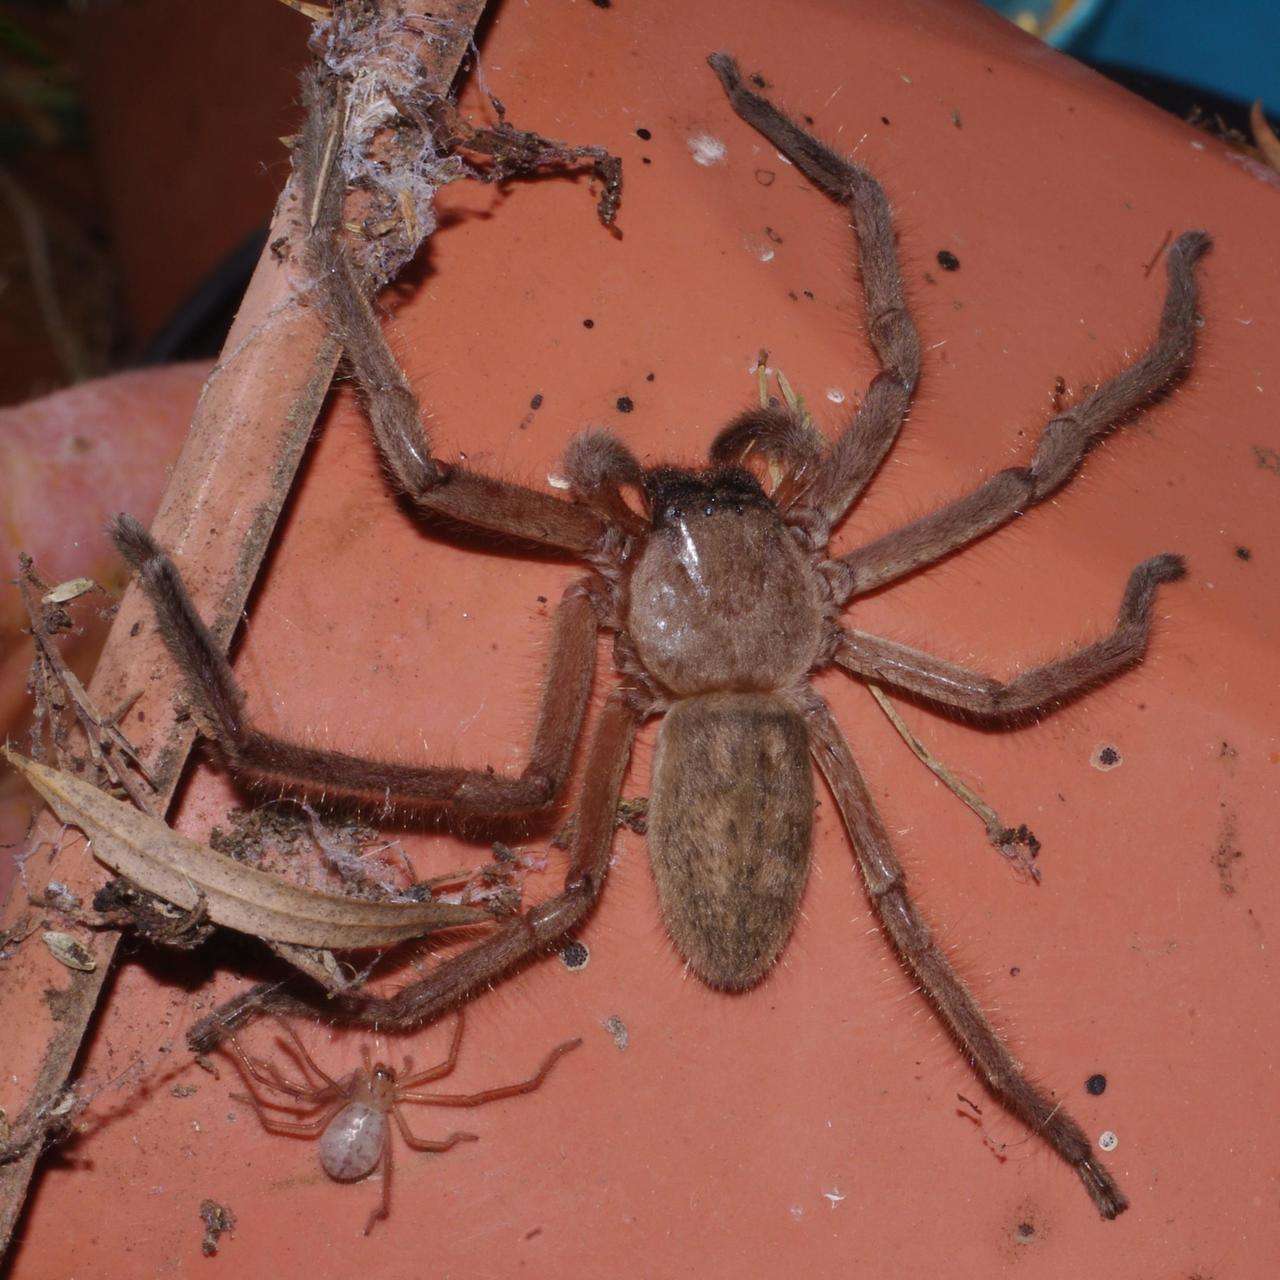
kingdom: Animalia
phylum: Arthropoda
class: Arachnida
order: Araneae
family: Sparassidae
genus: Delena
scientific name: Delena cancerides
